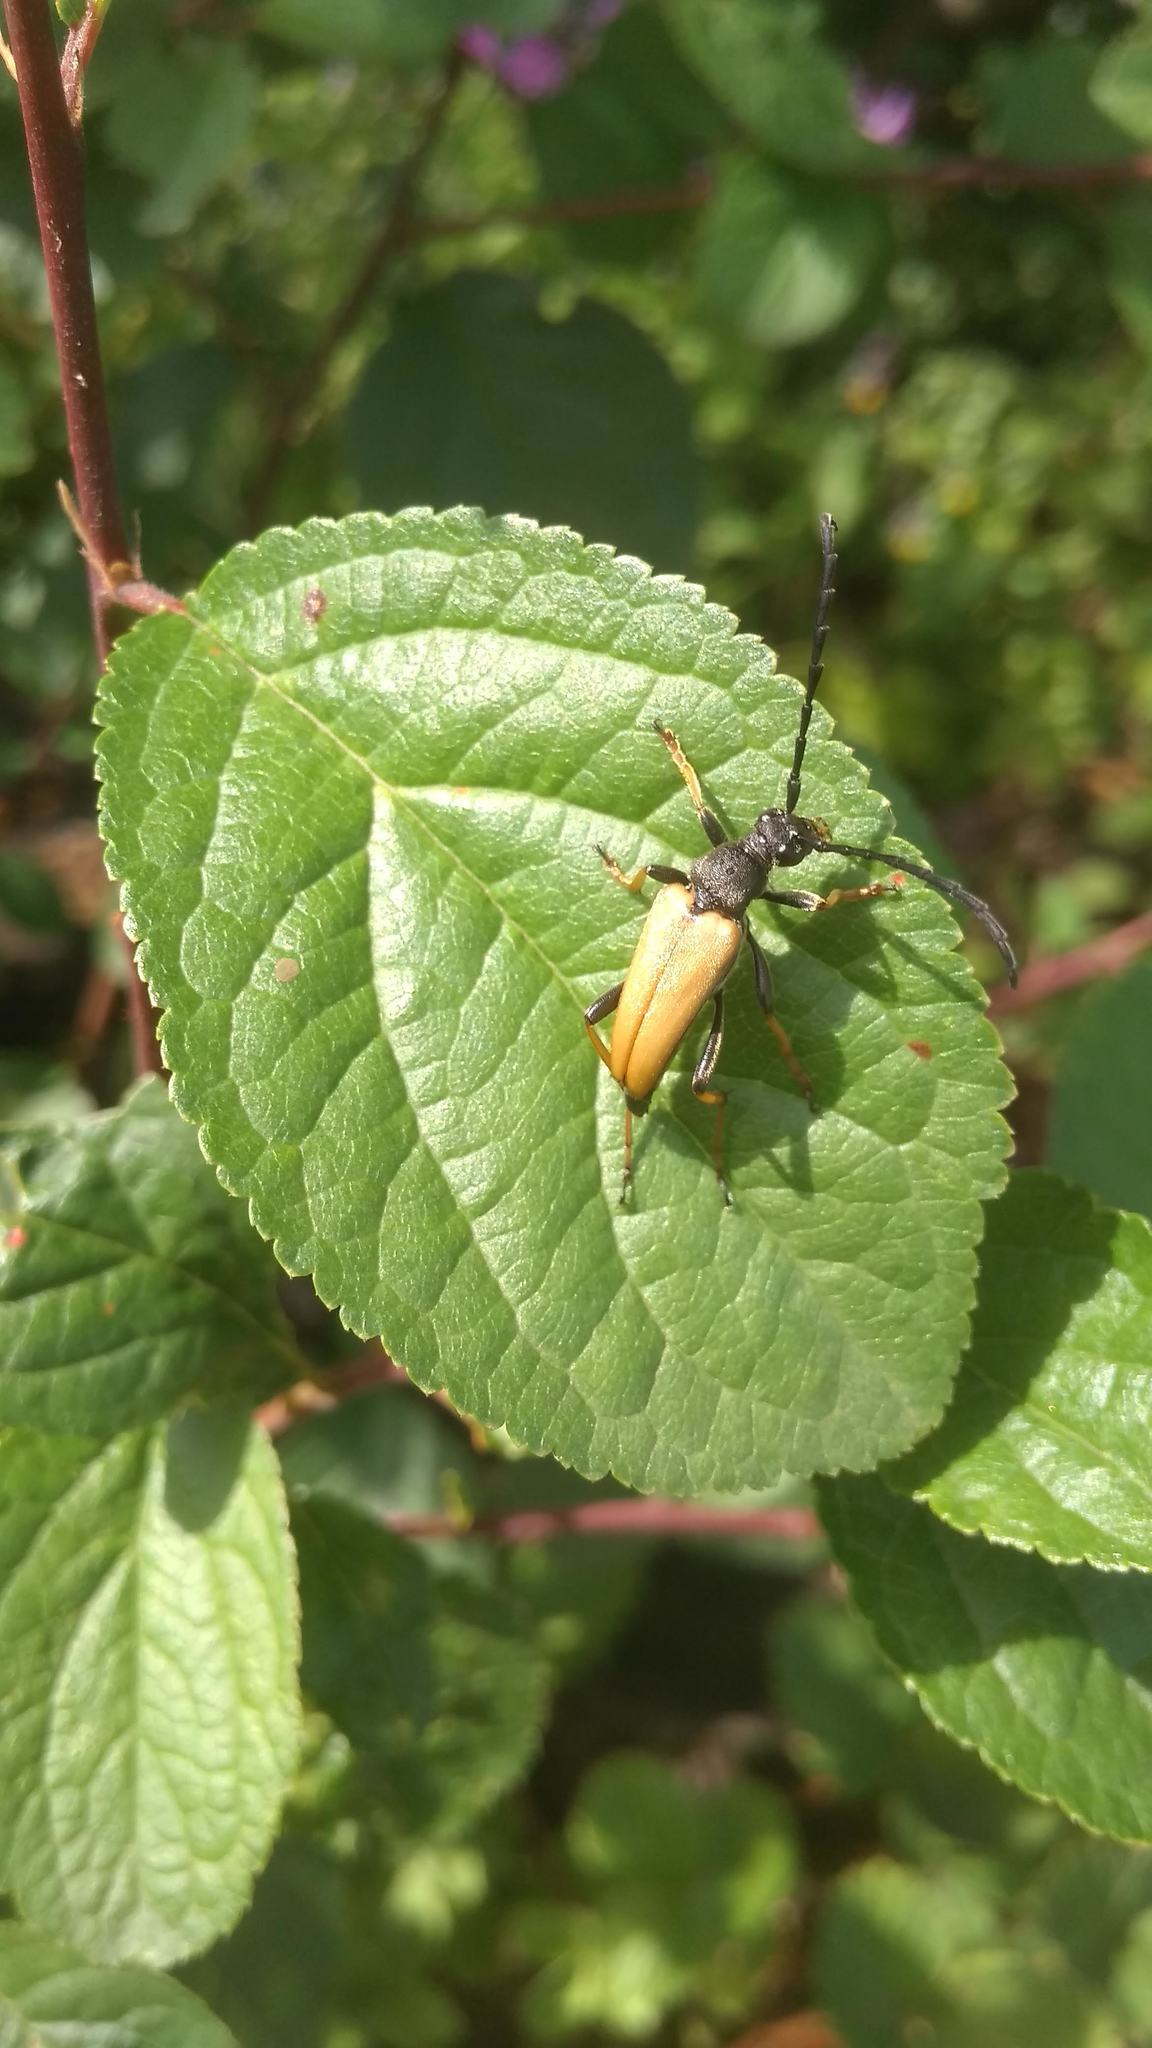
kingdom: Animalia
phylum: Arthropoda
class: Insecta
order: Coleoptera
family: Cerambycidae
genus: Stictoleptura
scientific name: Stictoleptura rubra
